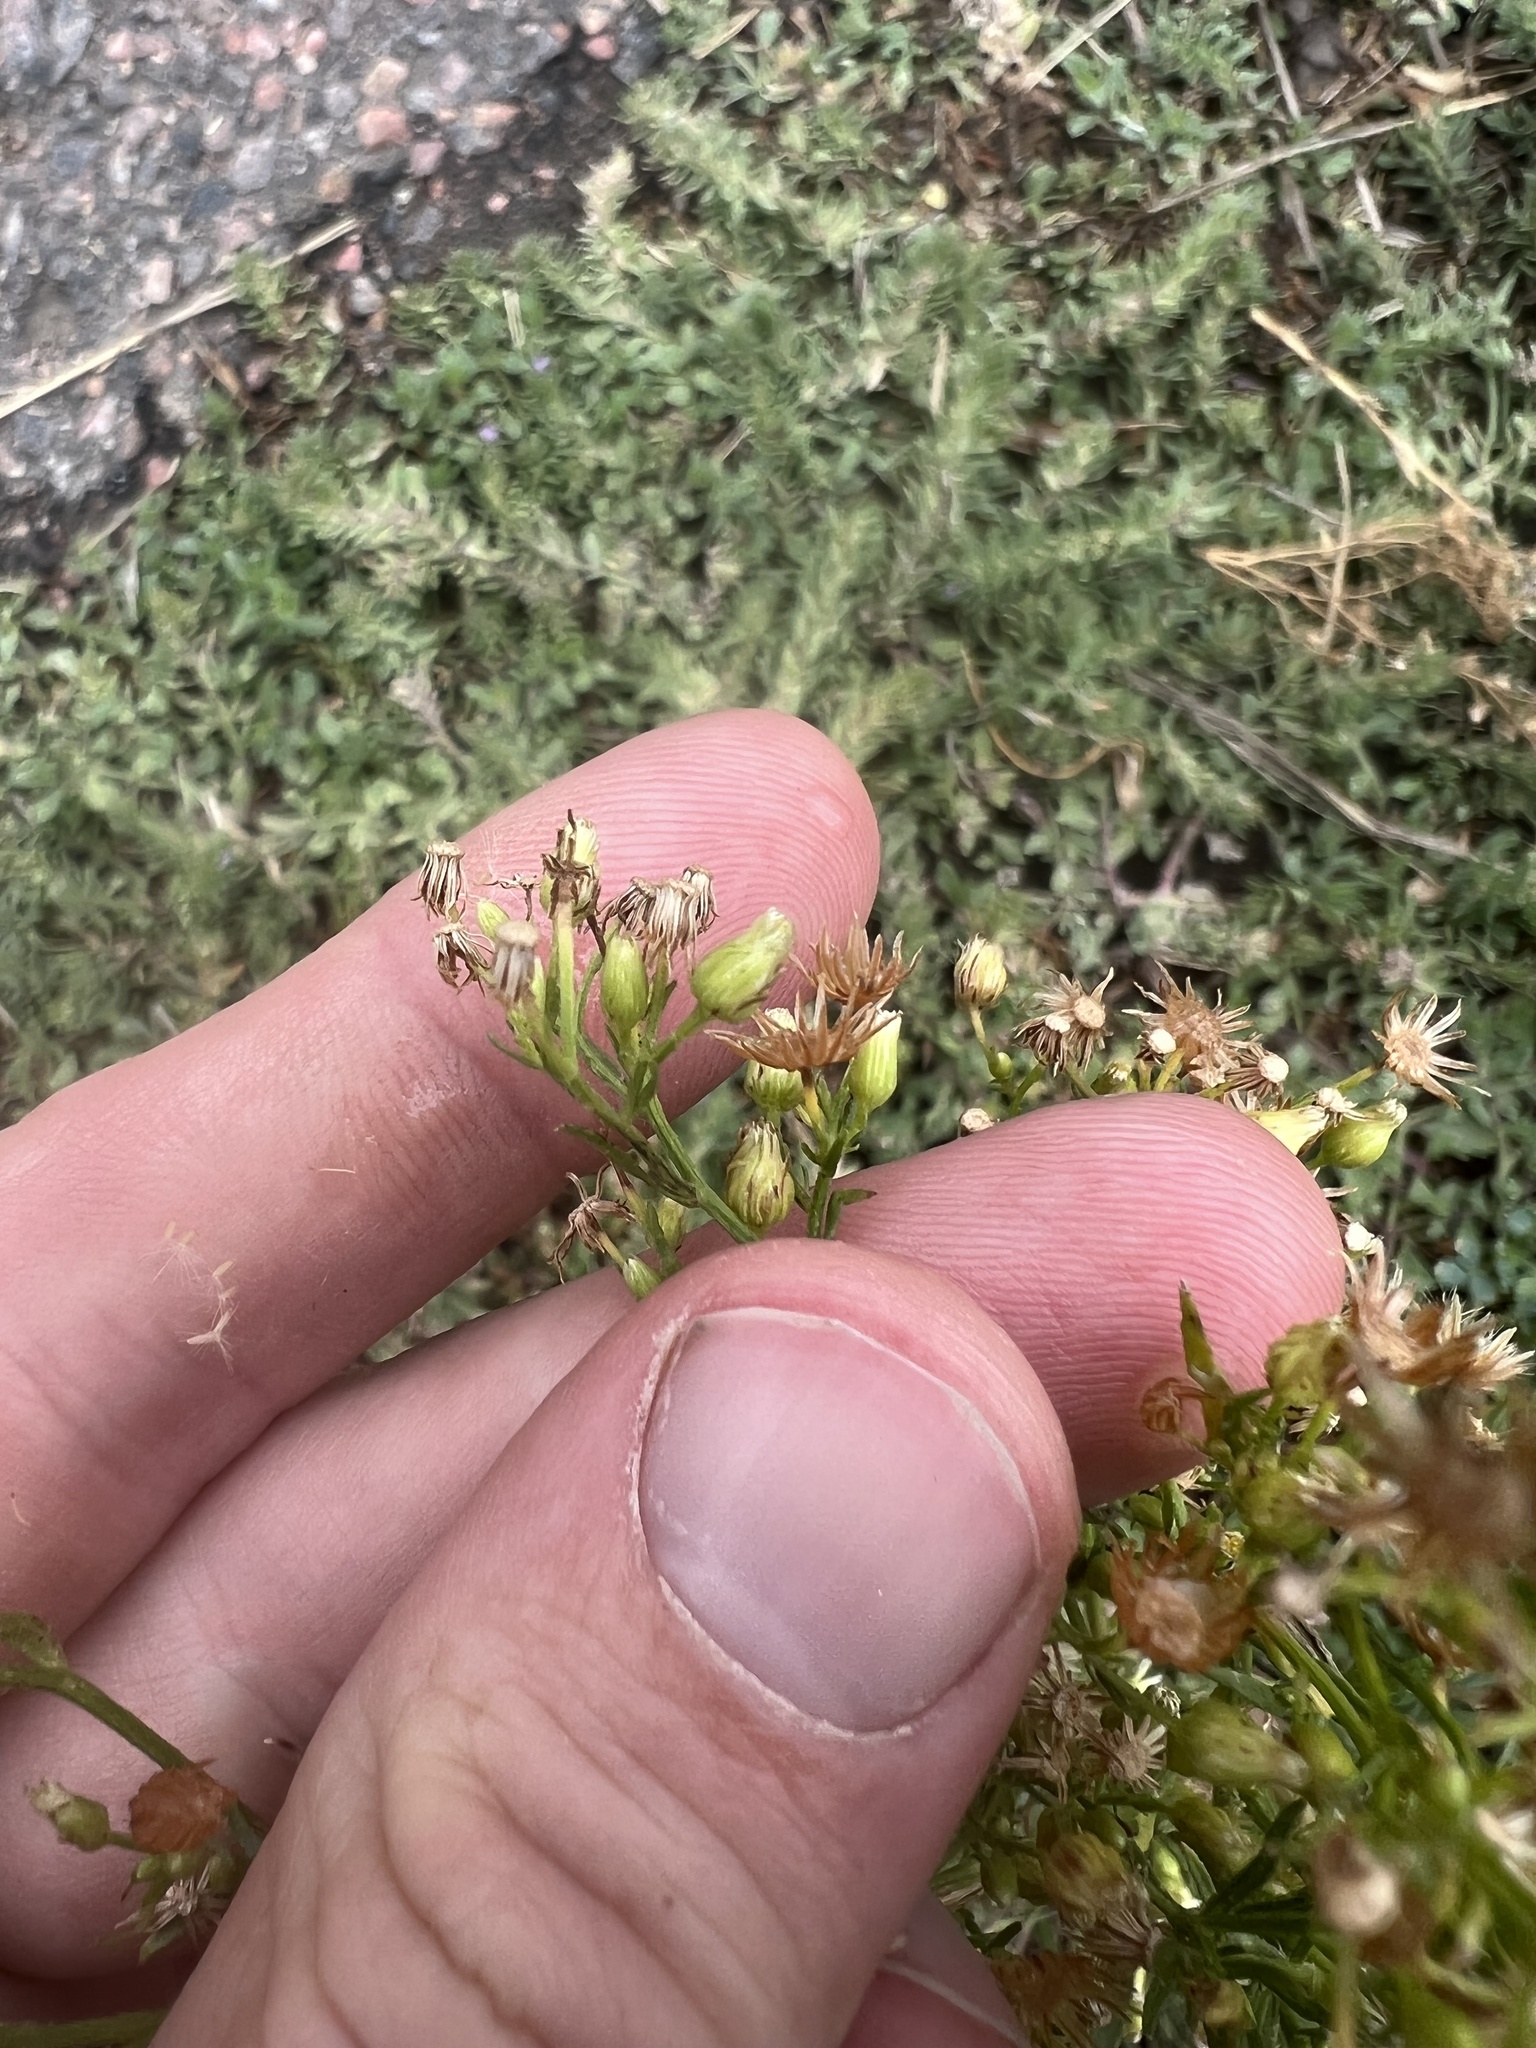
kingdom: Plantae
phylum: Tracheophyta
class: Magnoliopsida
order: Asterales
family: Asteraceae
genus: Erigeron
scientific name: Erigeron canadensis
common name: Canadian fleabane
